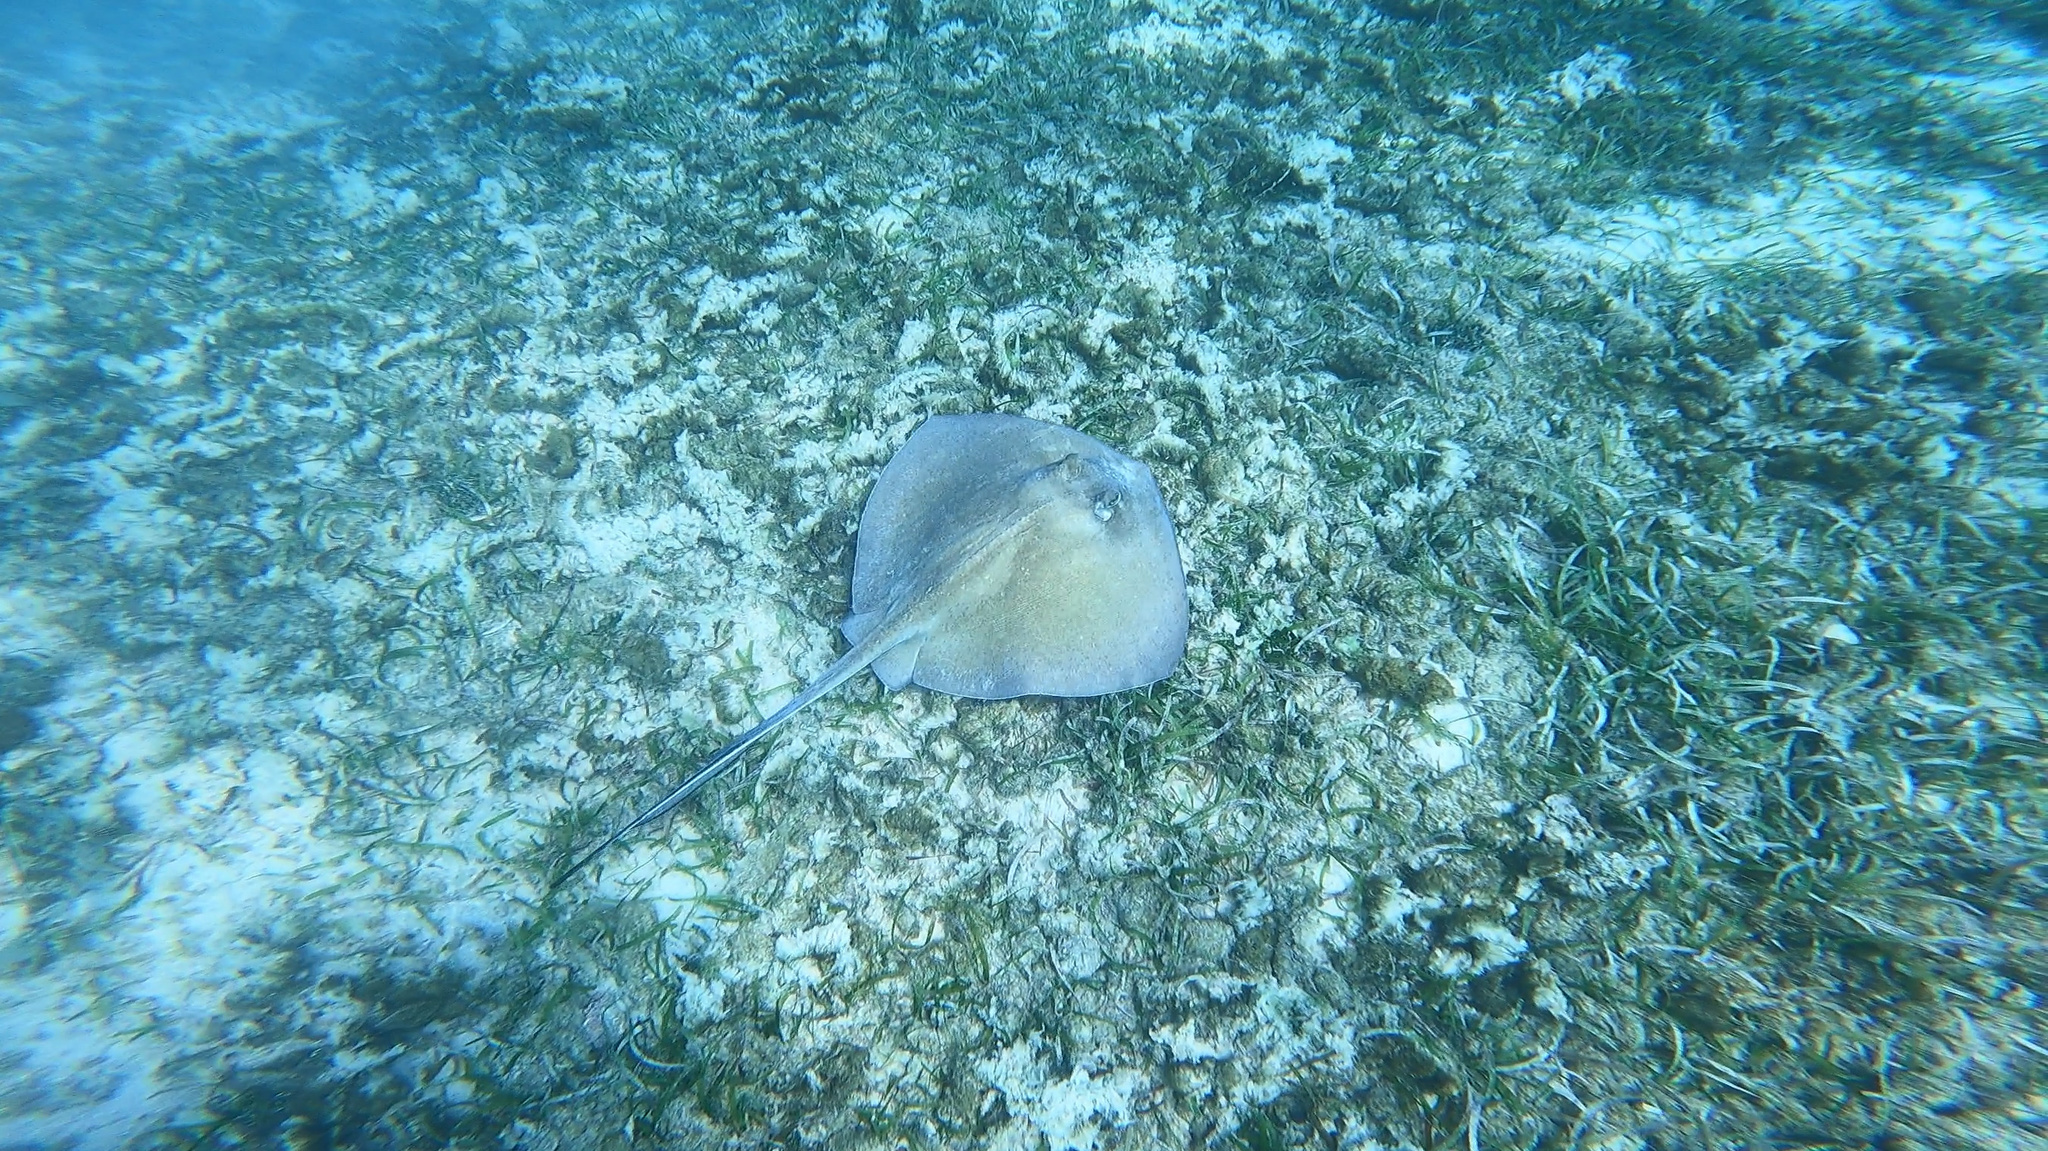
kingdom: Animalia
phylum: Chordata
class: Elasmobranchii
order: Myliobatiformes
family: Dasyatidae
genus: Hypanus
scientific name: Hypanus americanus
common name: Southern stingray
